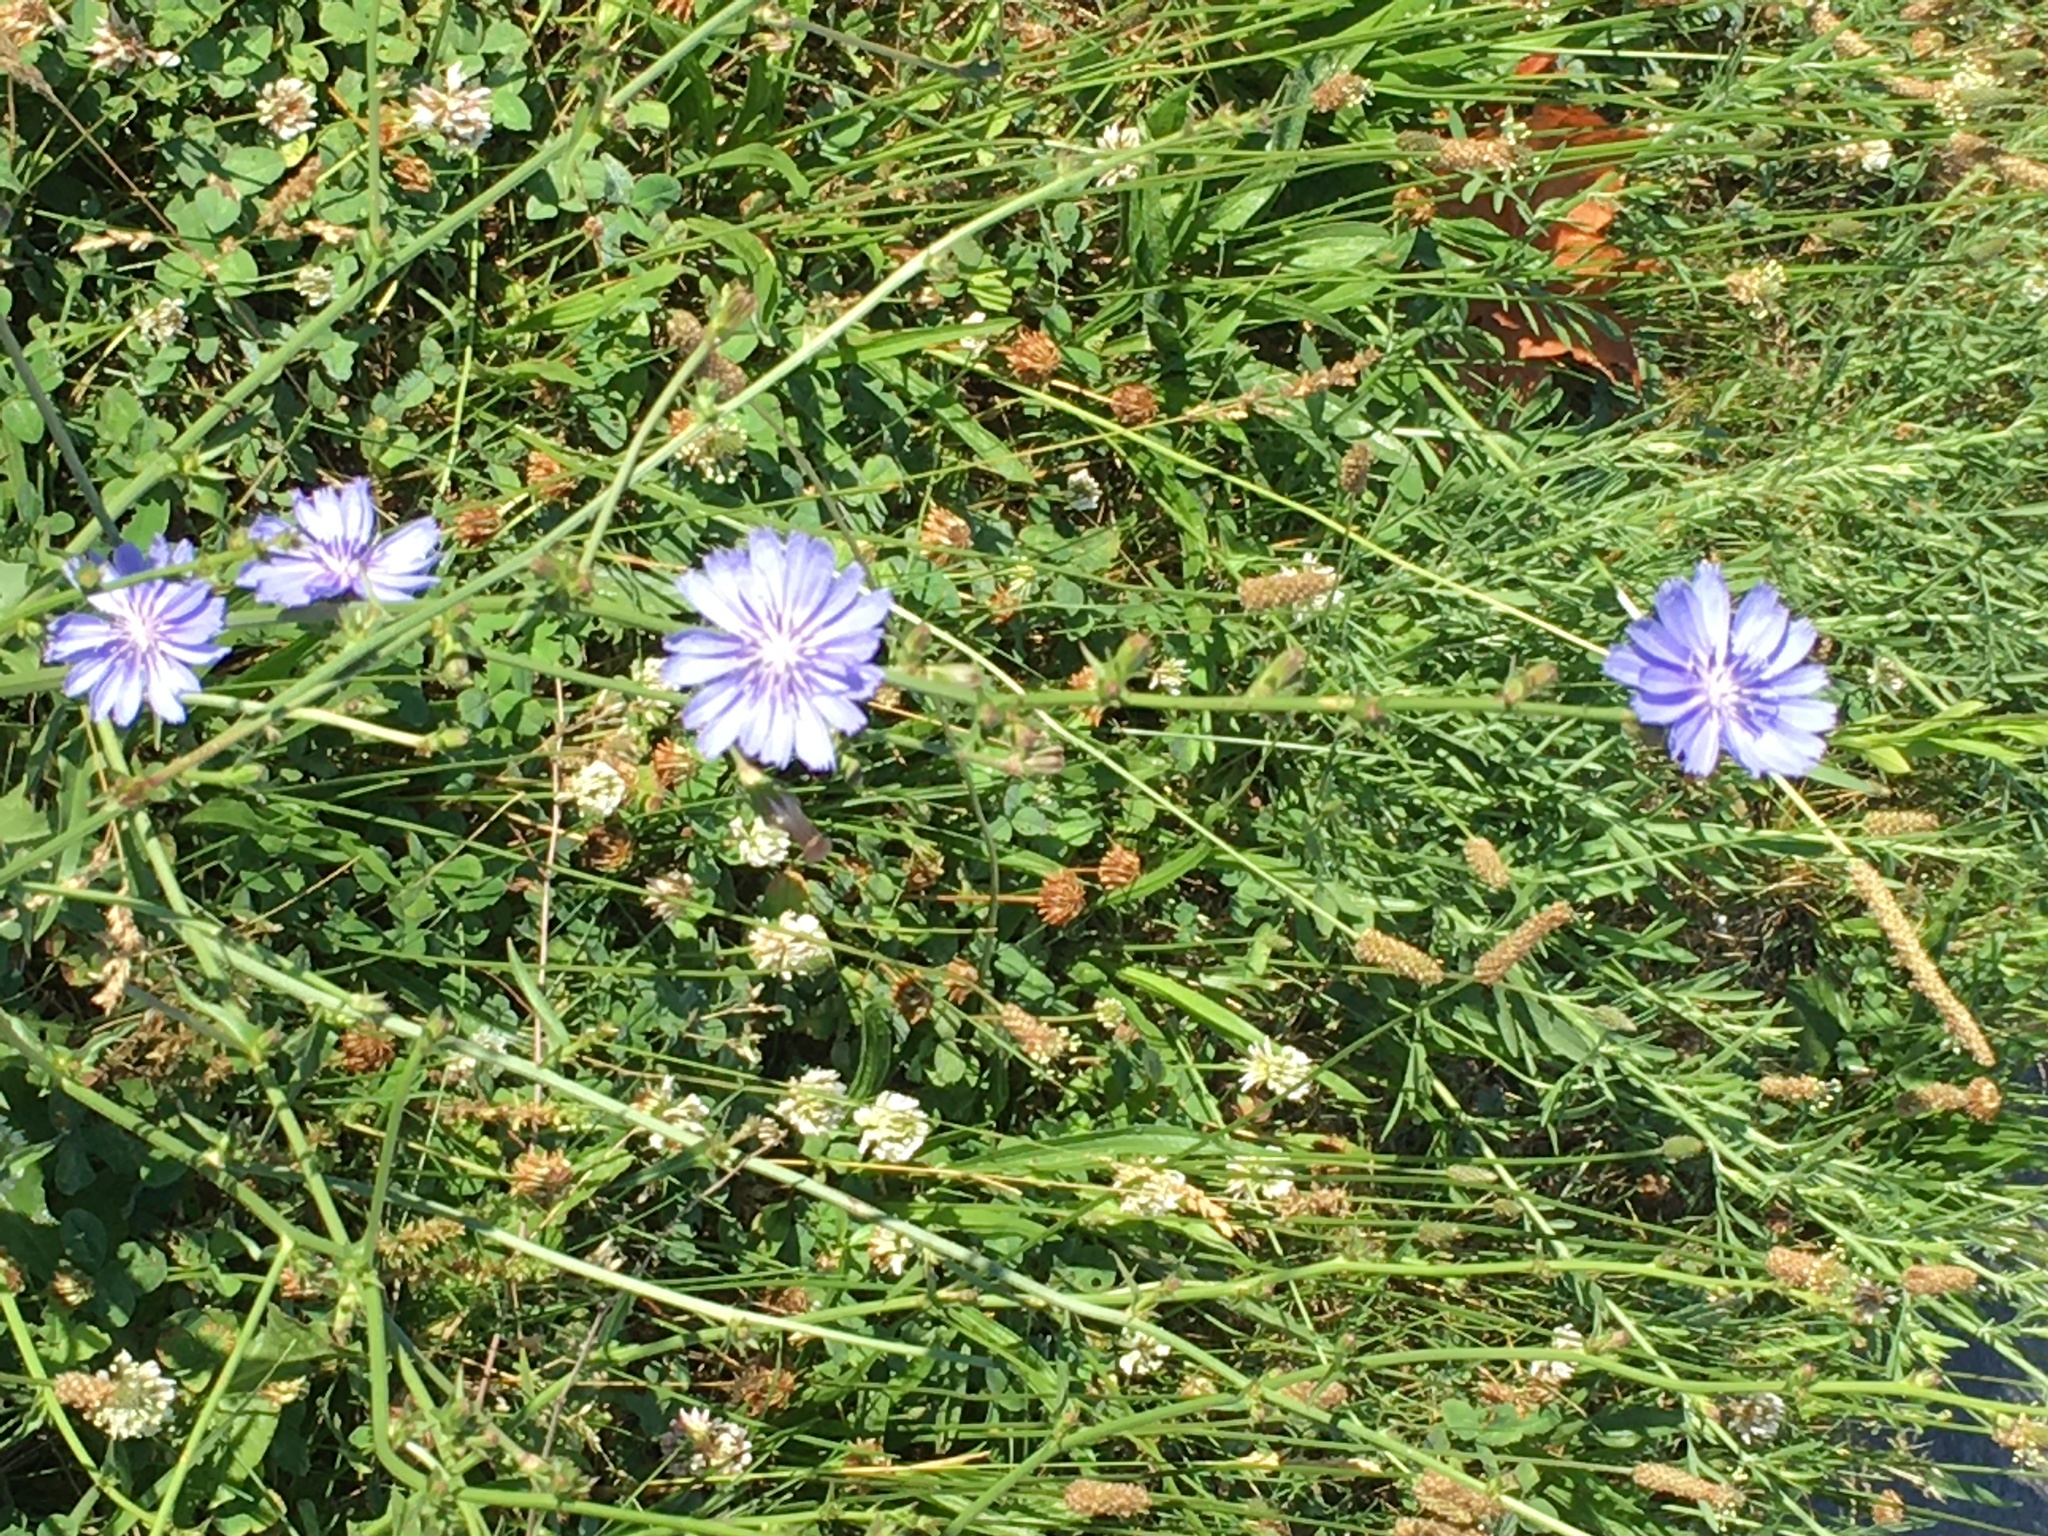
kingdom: Plantae
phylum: Tracheophyta
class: Magnoliopsida
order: Asterales
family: Asteraceae
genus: Cichorium
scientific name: Cichorium intybus
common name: Chicory
